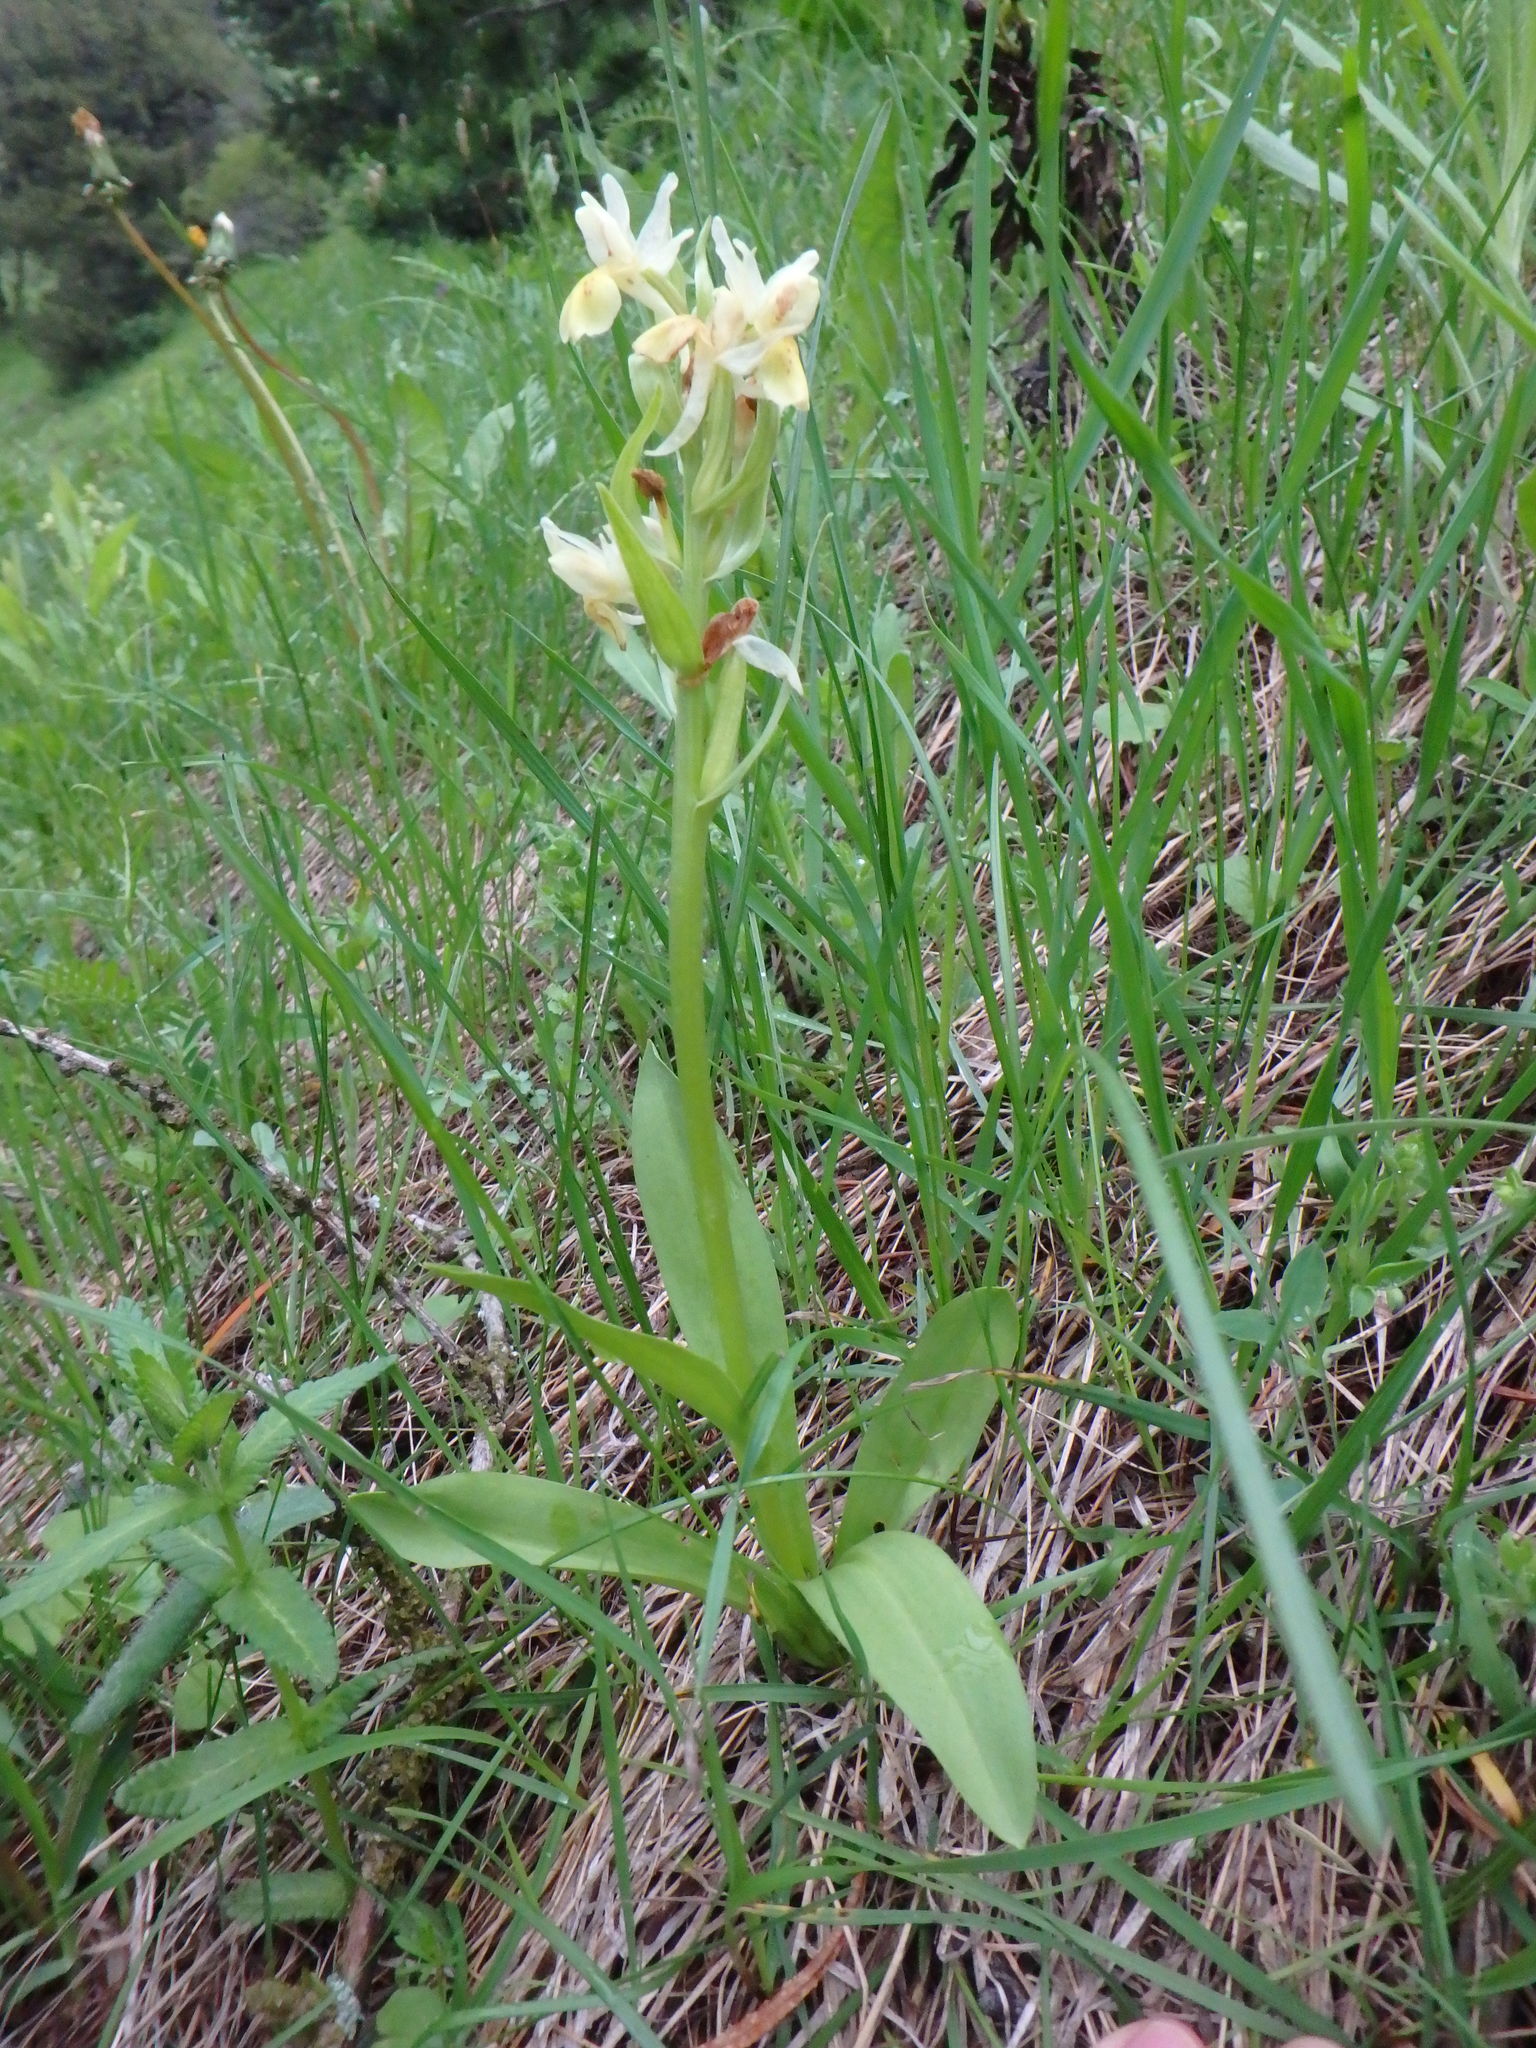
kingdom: Plantae
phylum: Tracheophyta
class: Liliopsida
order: Asparagales
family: Orchidaceae
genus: Dactylorhiza
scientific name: Dactylorhiza sambucina
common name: Elder-flowered orchid
